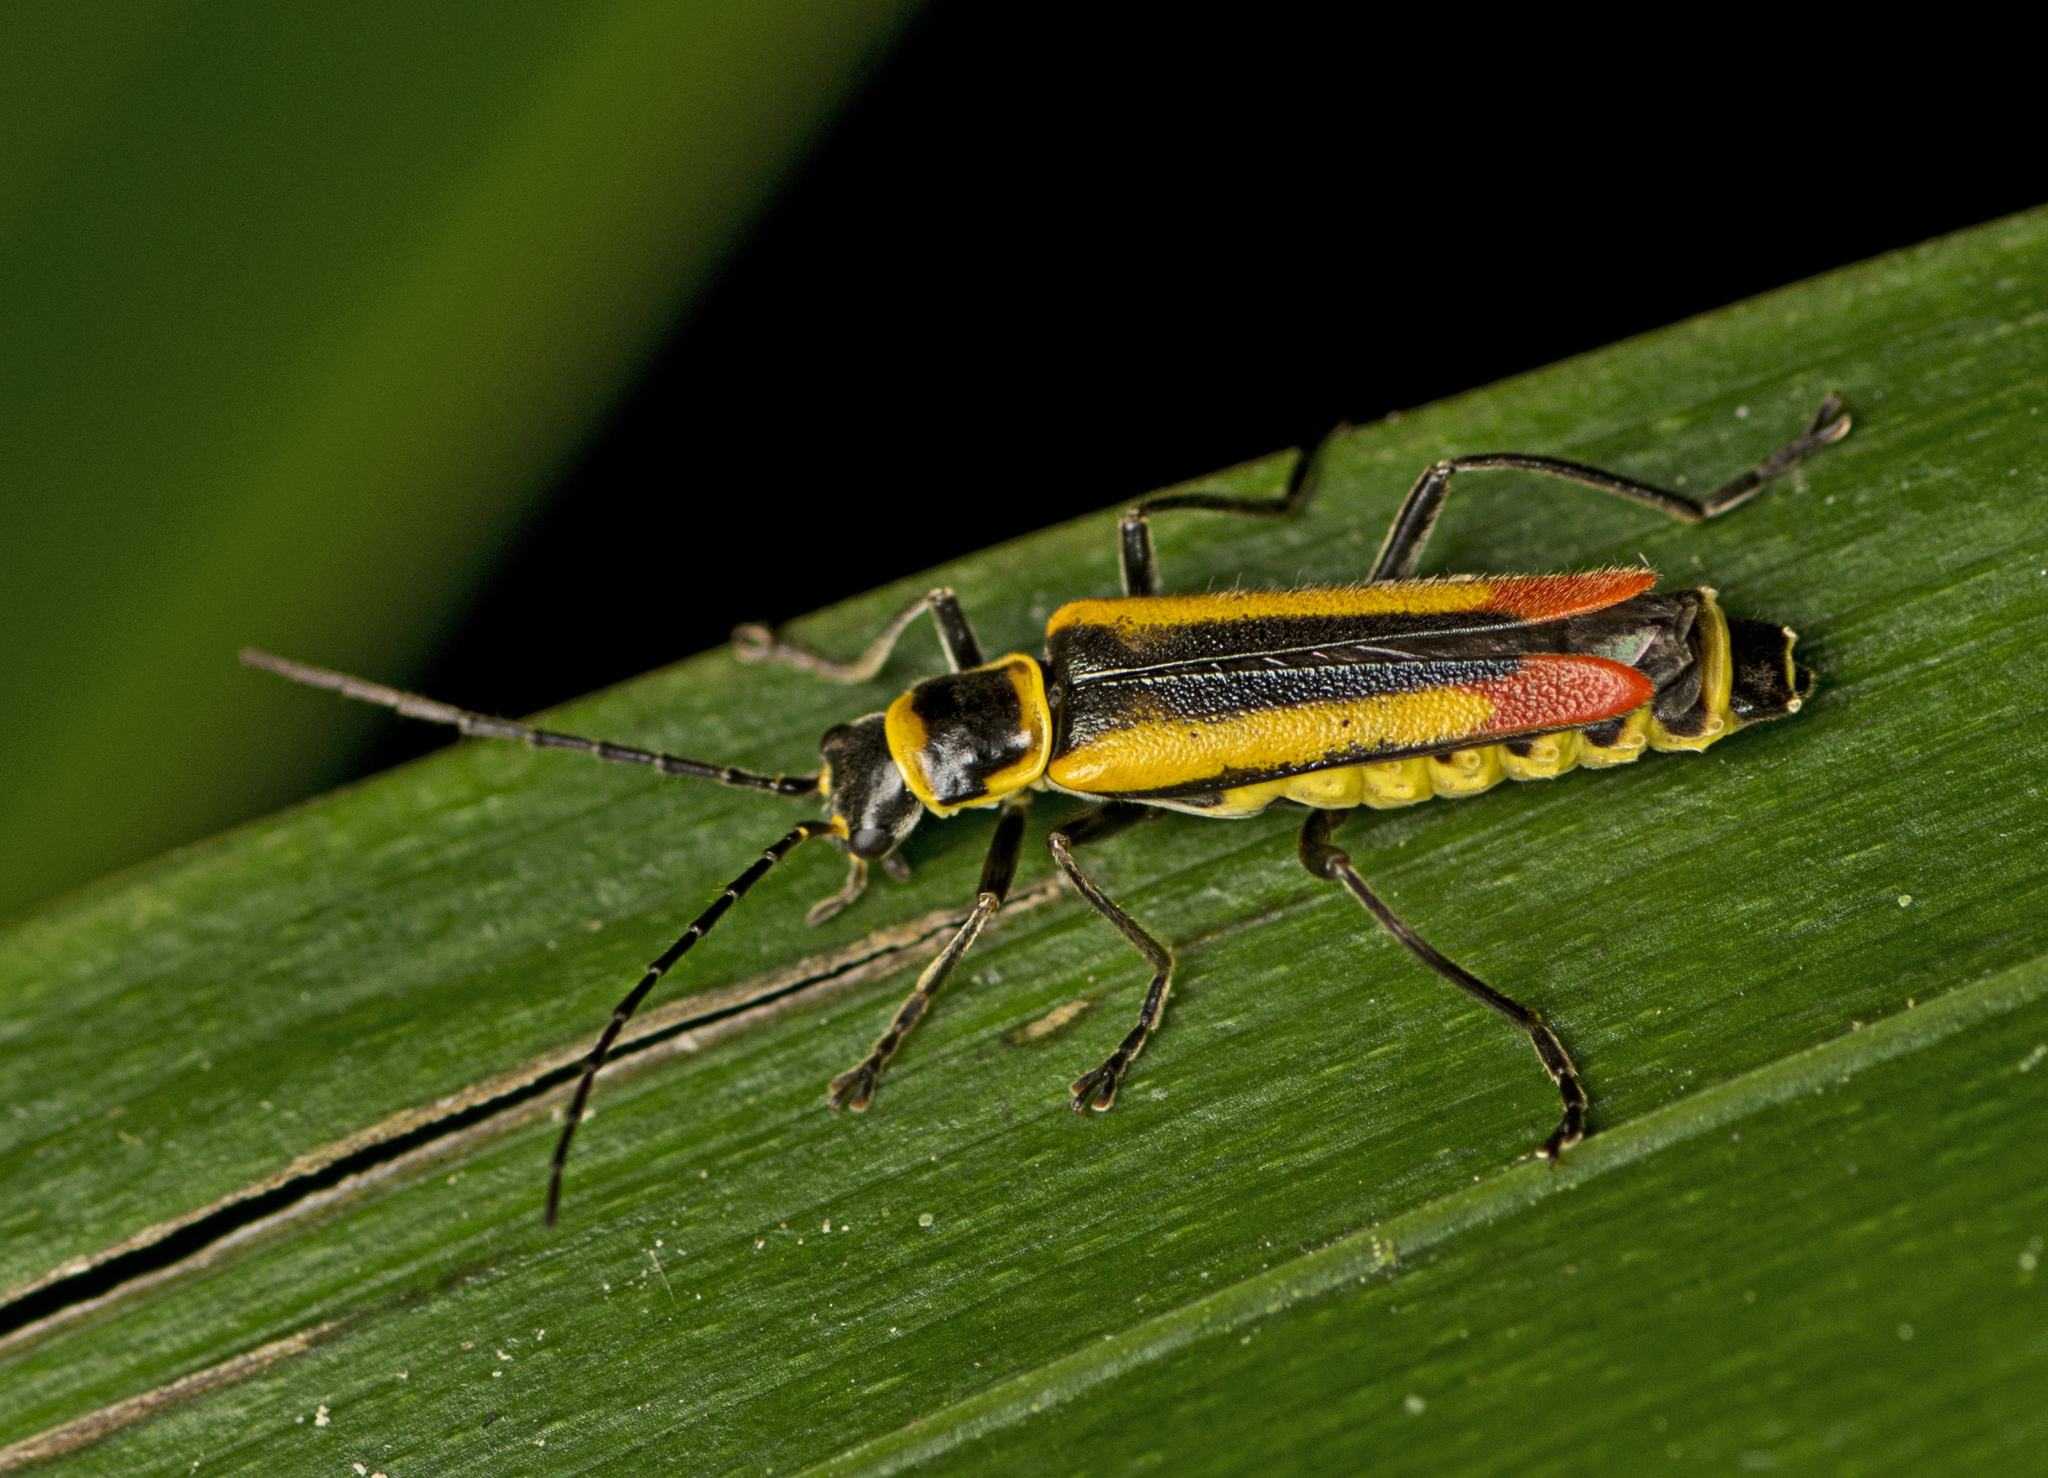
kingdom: Animalia
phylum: Arthropoda
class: Insecta
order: Coleoptera
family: Cantharidae
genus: Chauliognathus
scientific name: Chauliognathus
